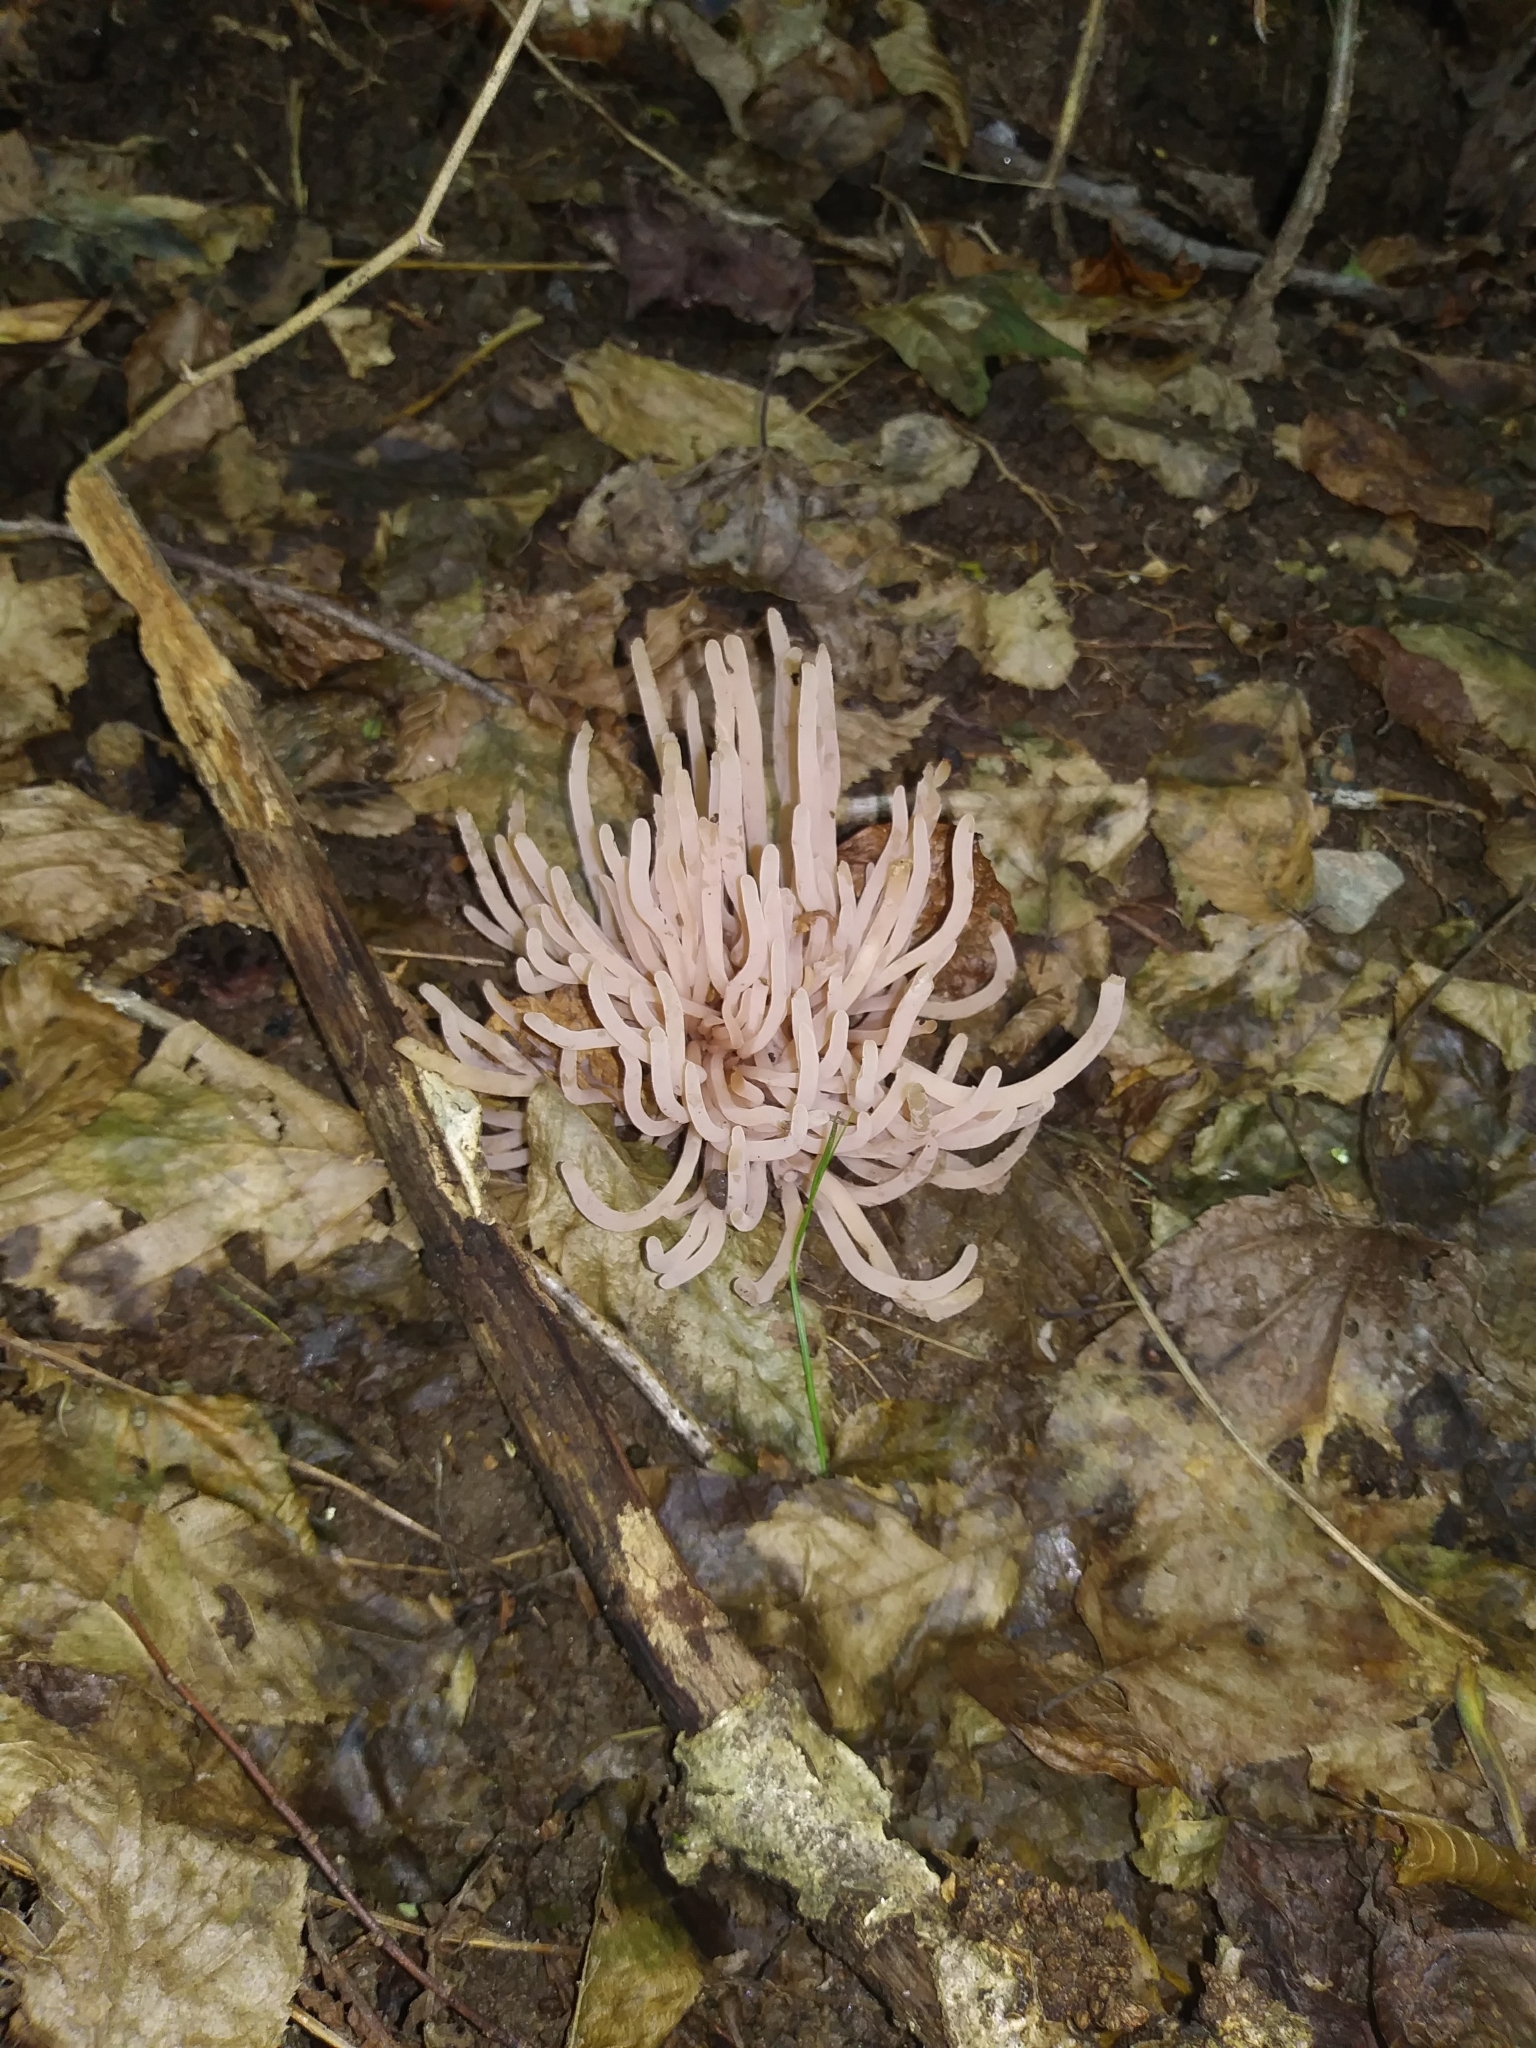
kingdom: Fungi
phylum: Basidiomycota
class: Agaricomycetes
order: Agaricales
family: Clavariaceae
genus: Clavaria
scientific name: Clavaria fumosa
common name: Smoky spindles
